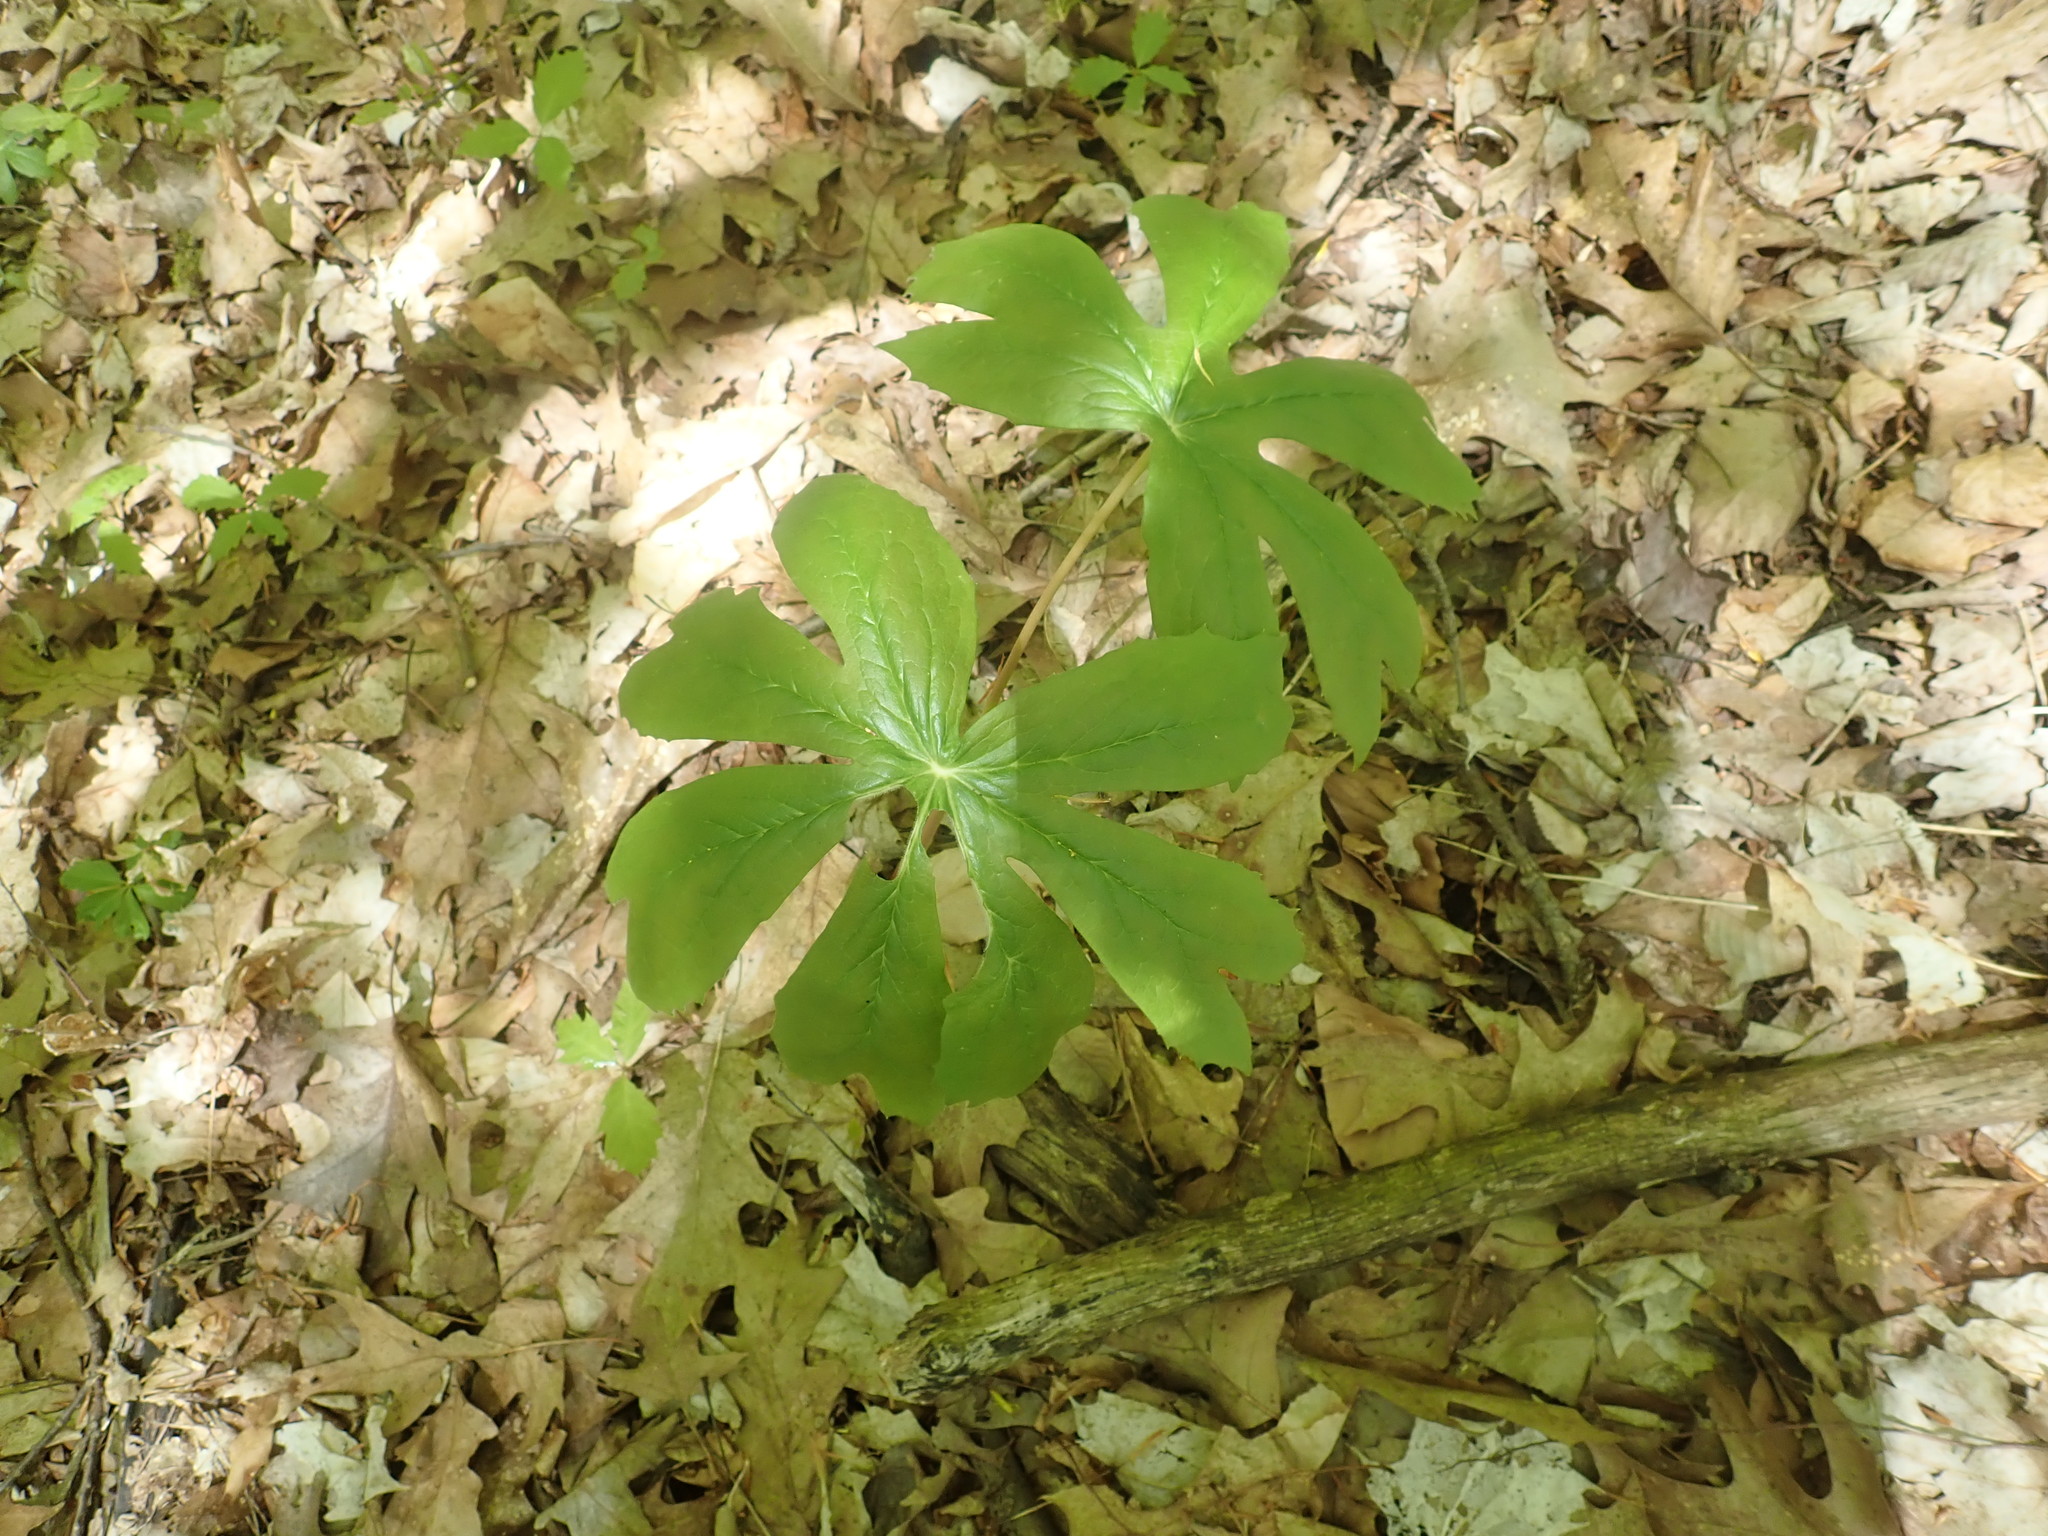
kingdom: Plantae
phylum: Tracheophyta
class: Magnoliopsida
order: Ranunculales
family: Berberidaceae
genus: Podophyllum
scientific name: Podophyllum peltatum
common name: Wild mandrake
